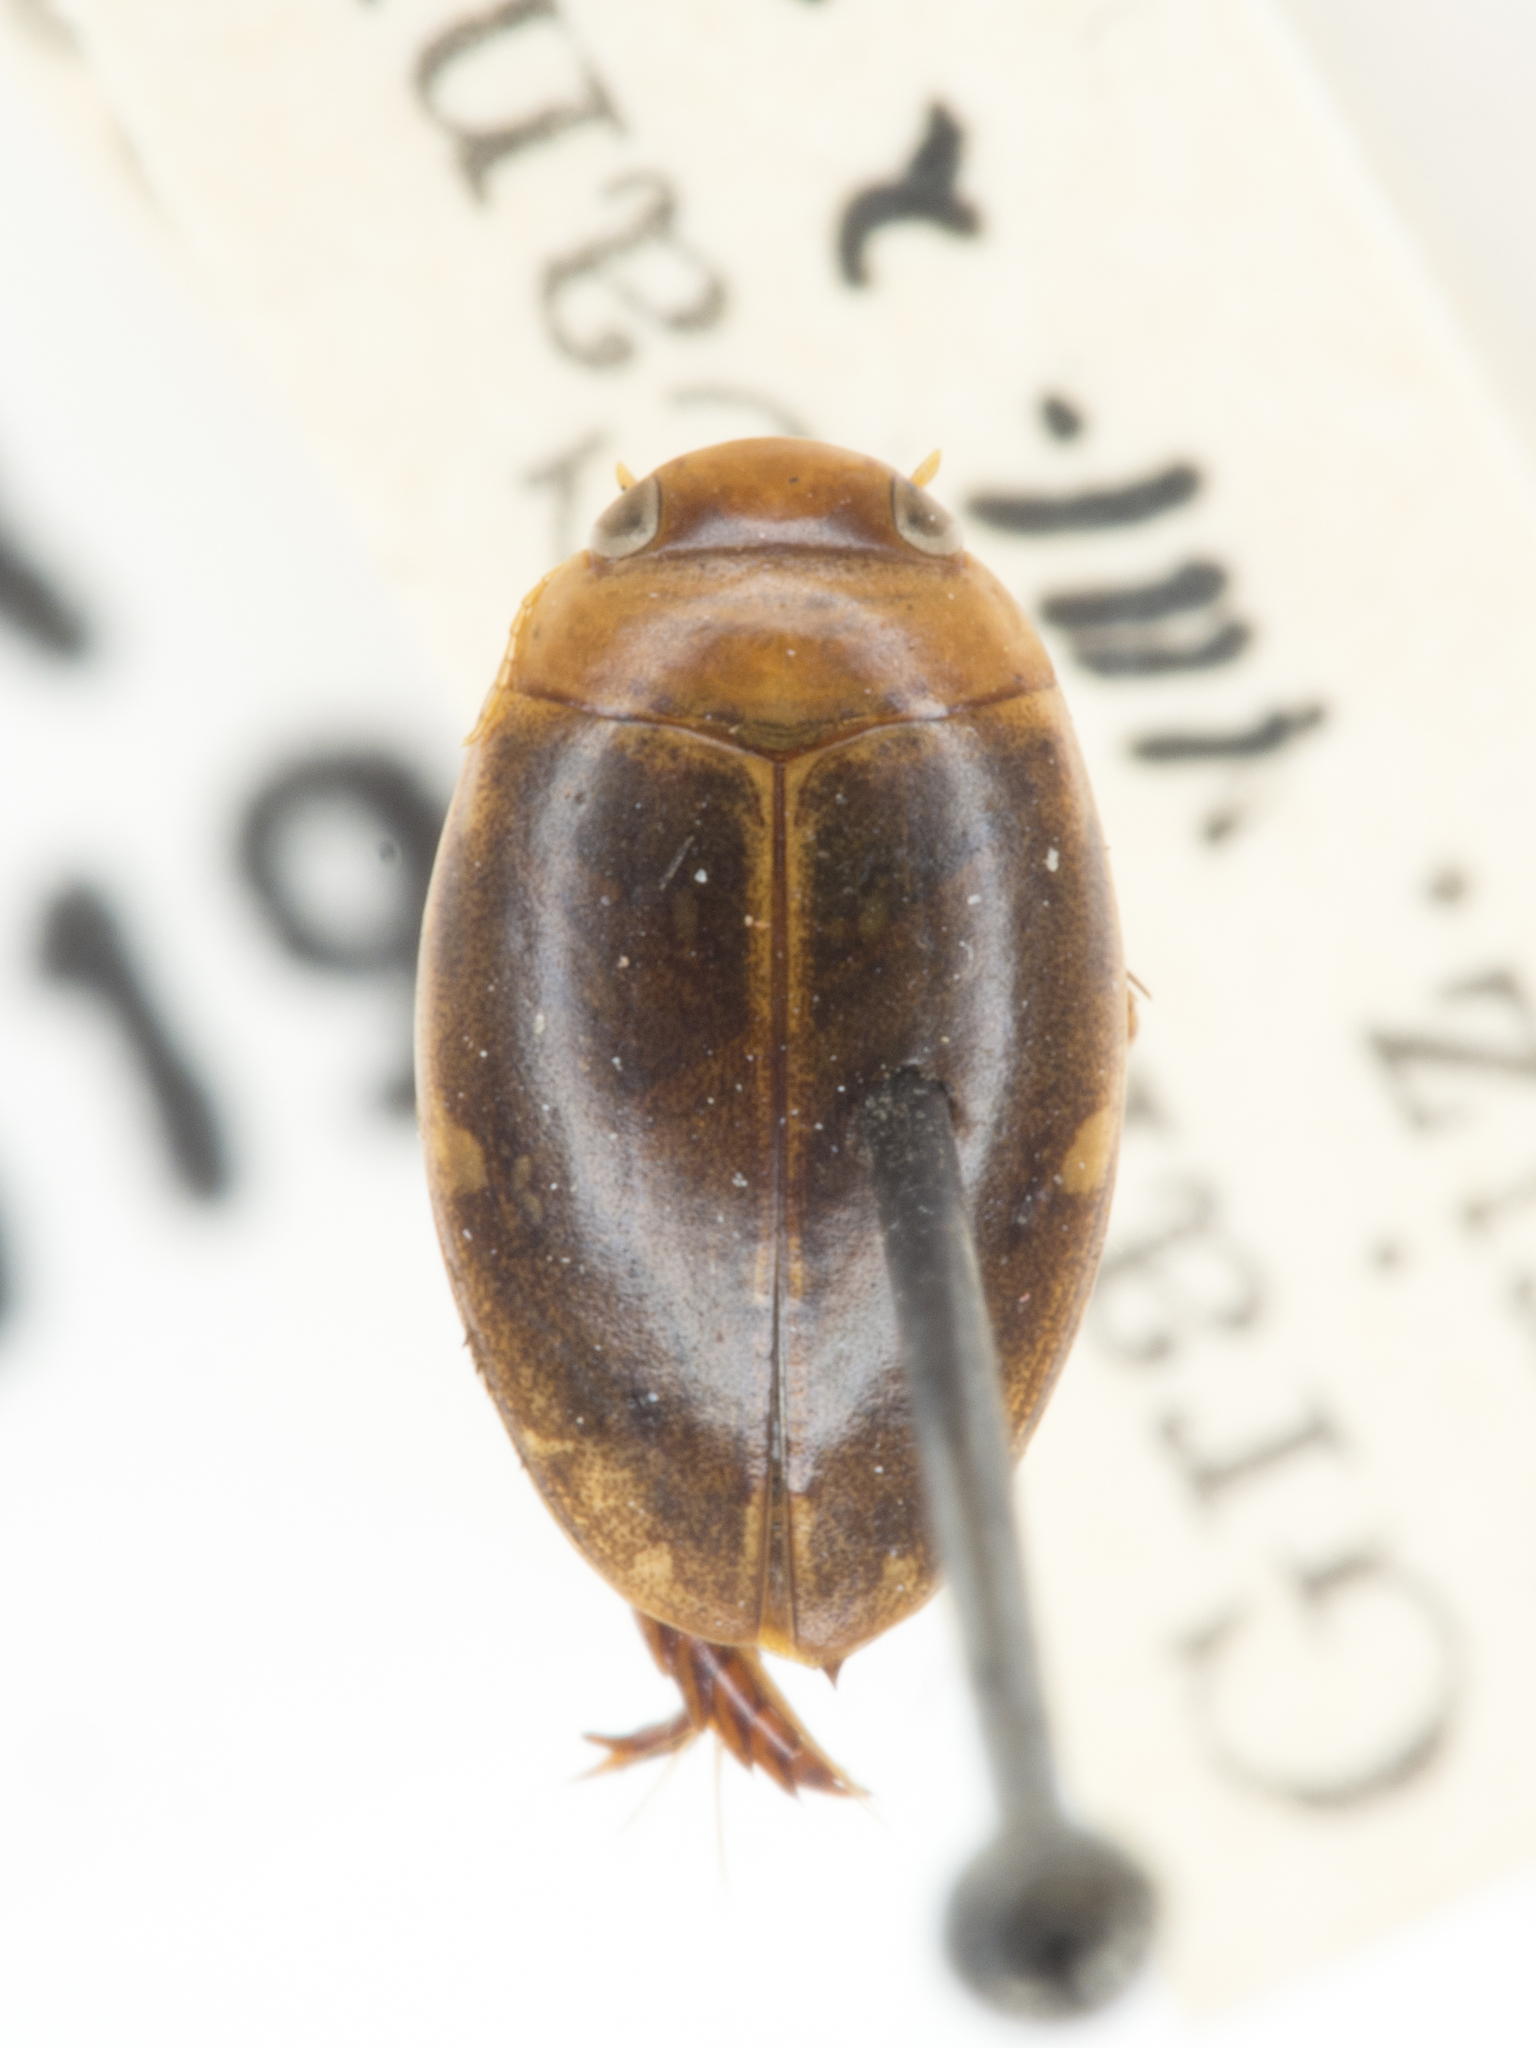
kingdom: Animalia
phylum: Arthropoda
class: Insecta
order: Coleoptera
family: Dytiscidae
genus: Laccophilus
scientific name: Laccophilus maculosus
